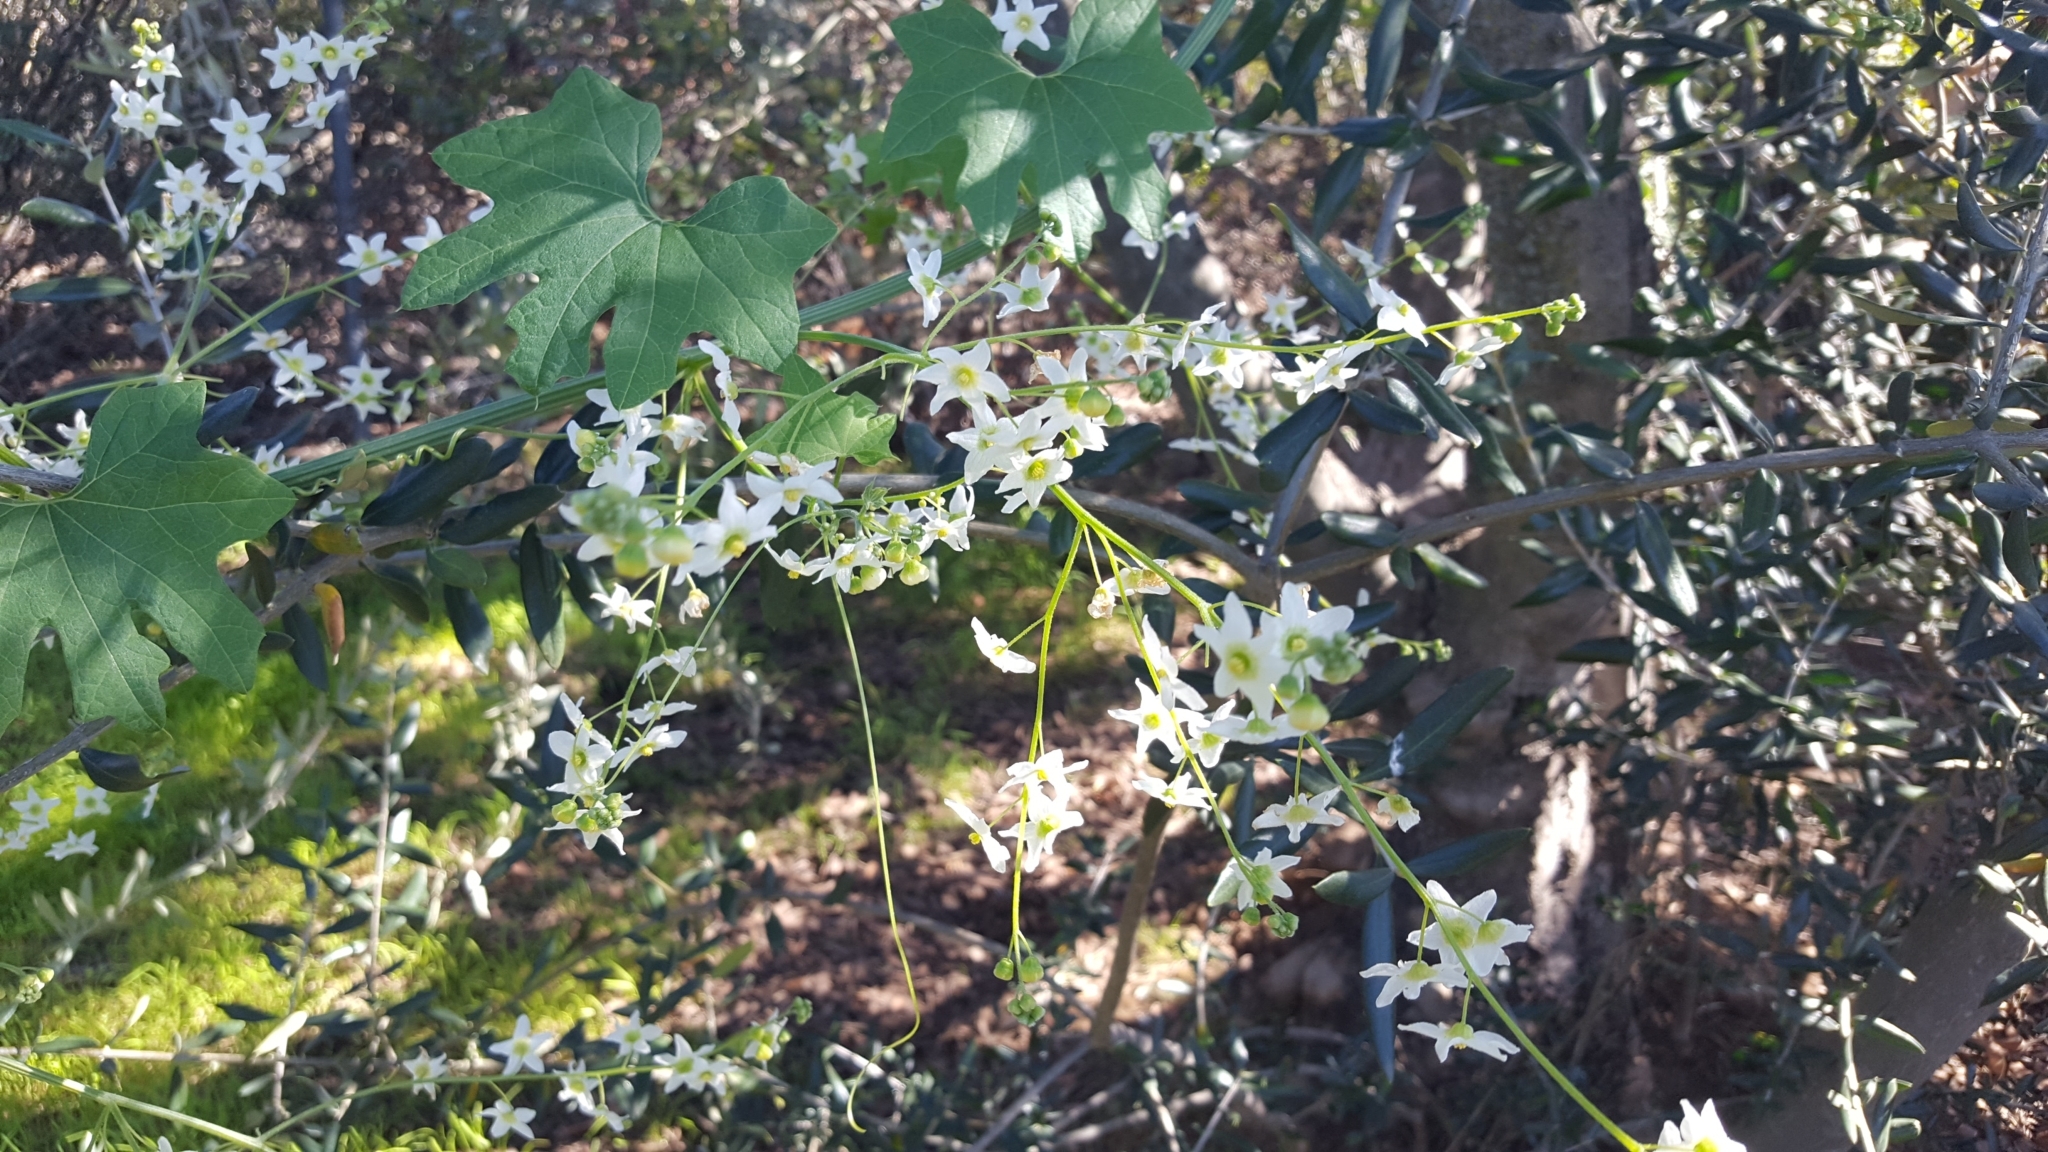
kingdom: Plantae
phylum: Tracheophyta
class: Magnoliopsida
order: Cucurbitales
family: Cucurbitaceae
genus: Marah
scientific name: Marah macrocarpa
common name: Cucamonga manroot
